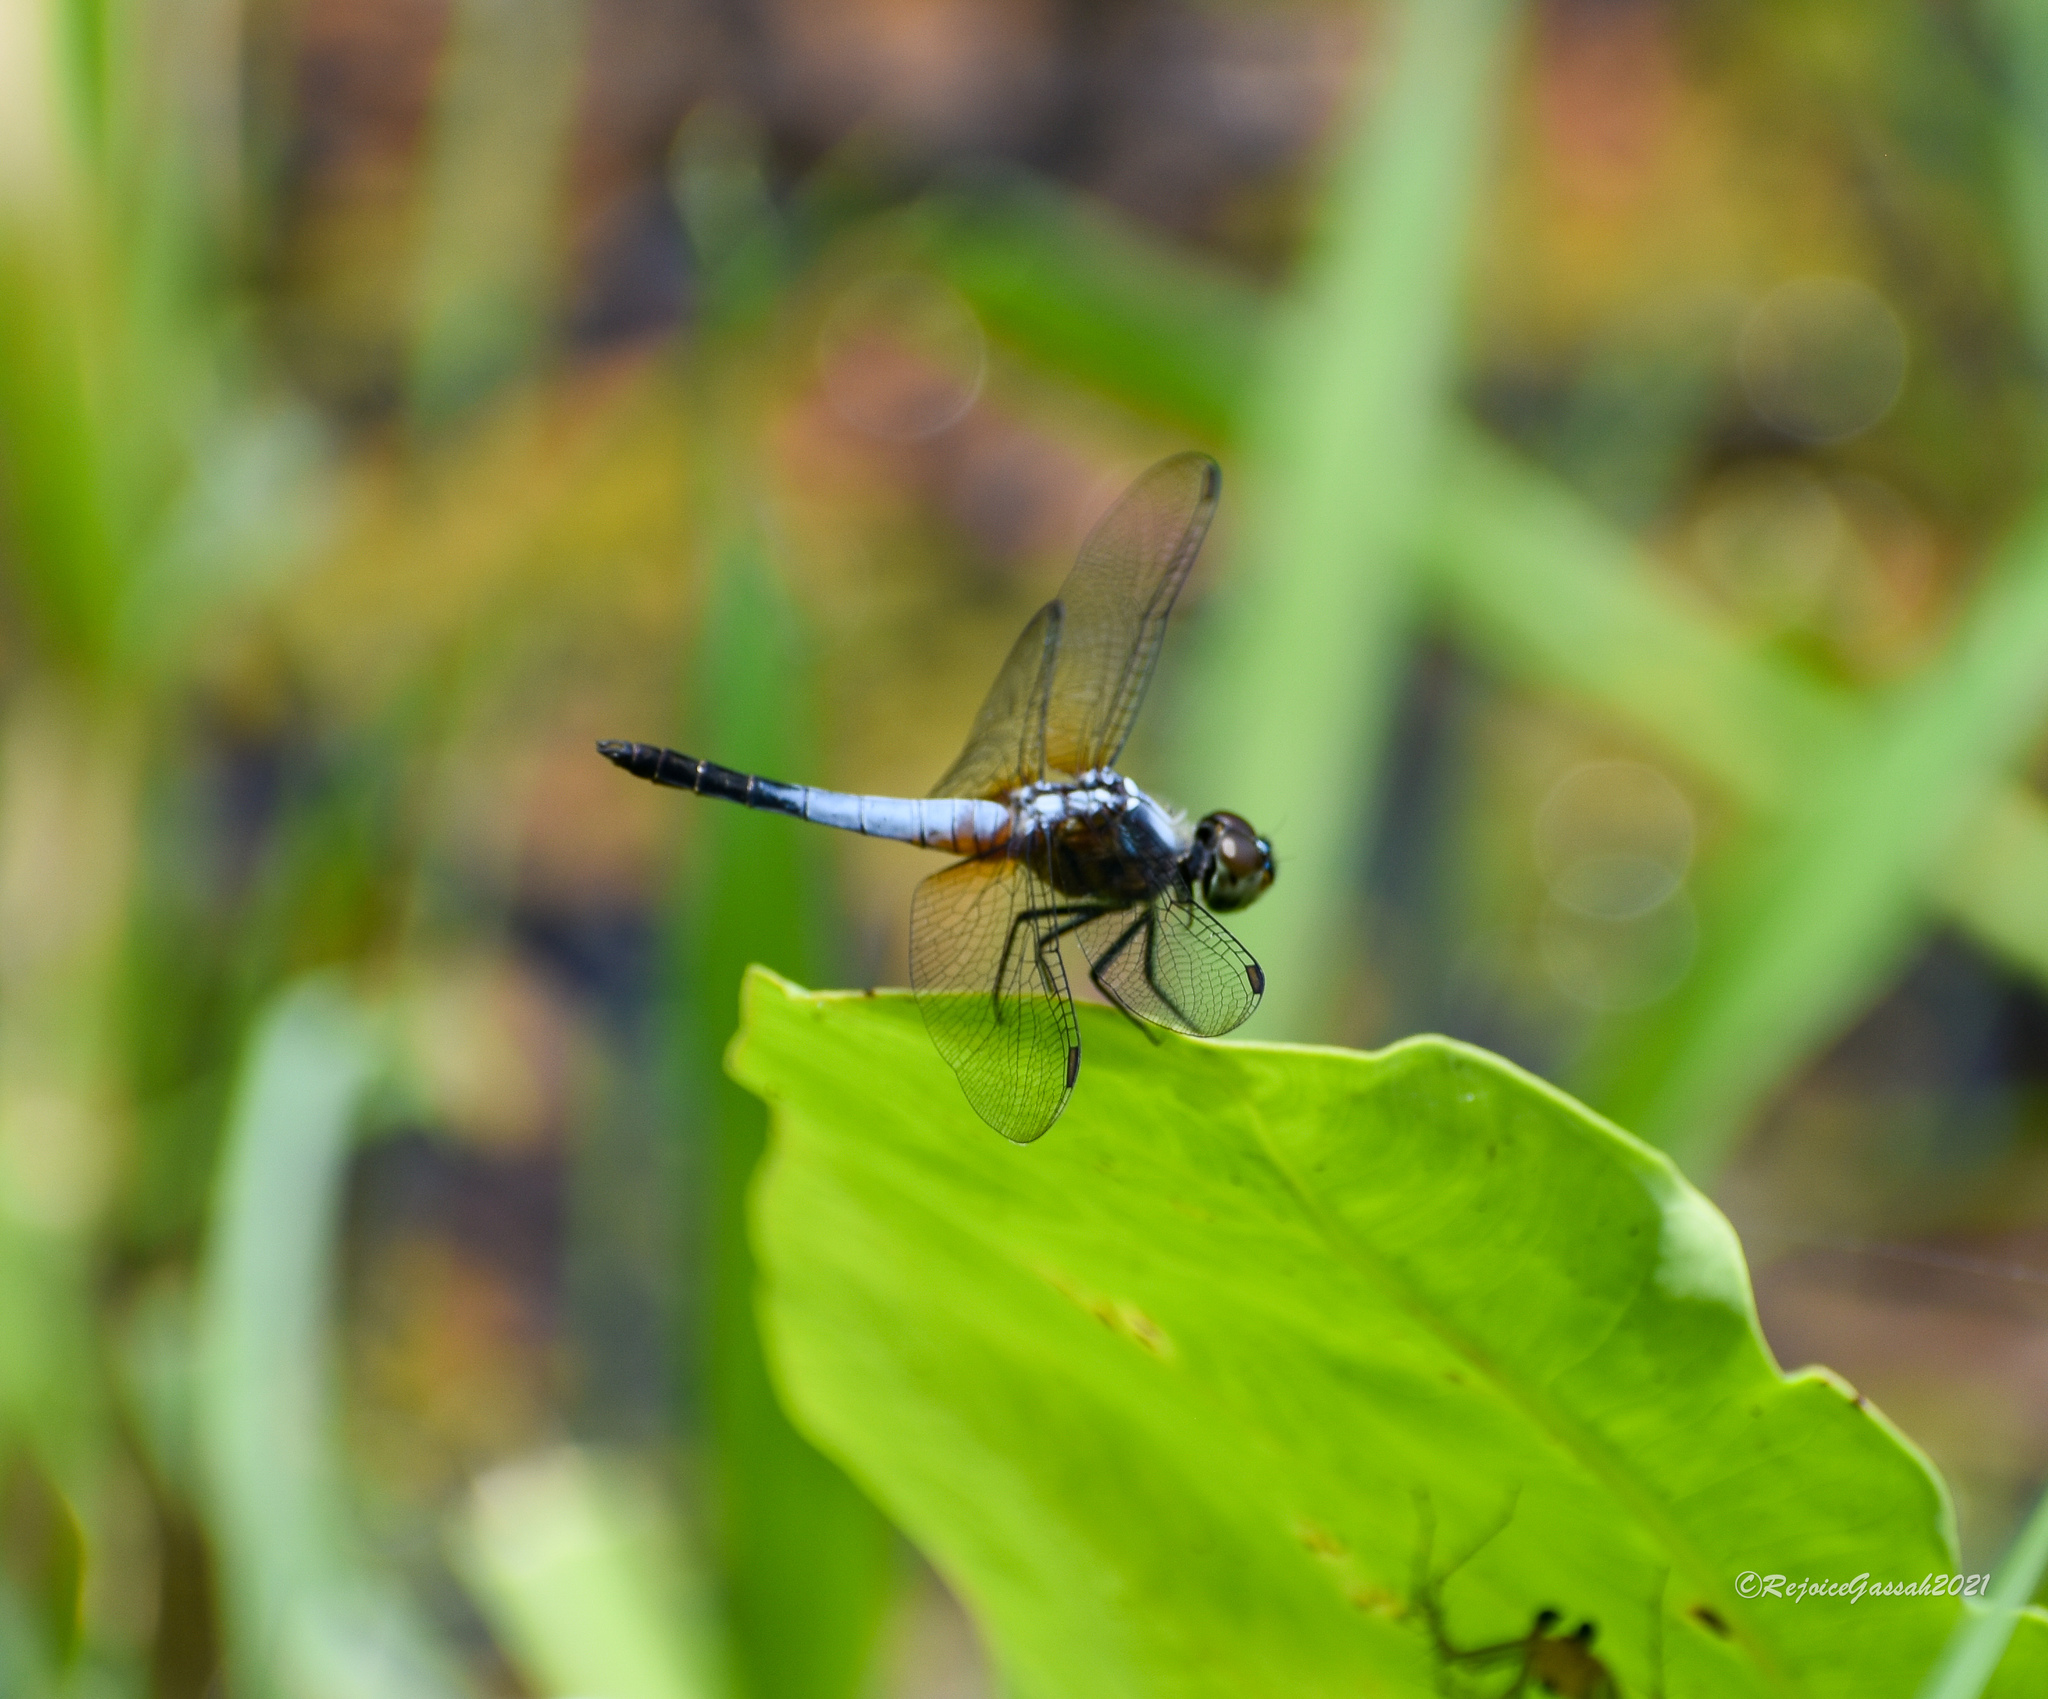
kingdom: Animalia
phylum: Arthropoda
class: Insecta
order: Odonata
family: Libellulidae
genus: Brachydiplax
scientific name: Brachydiplax chalybea
